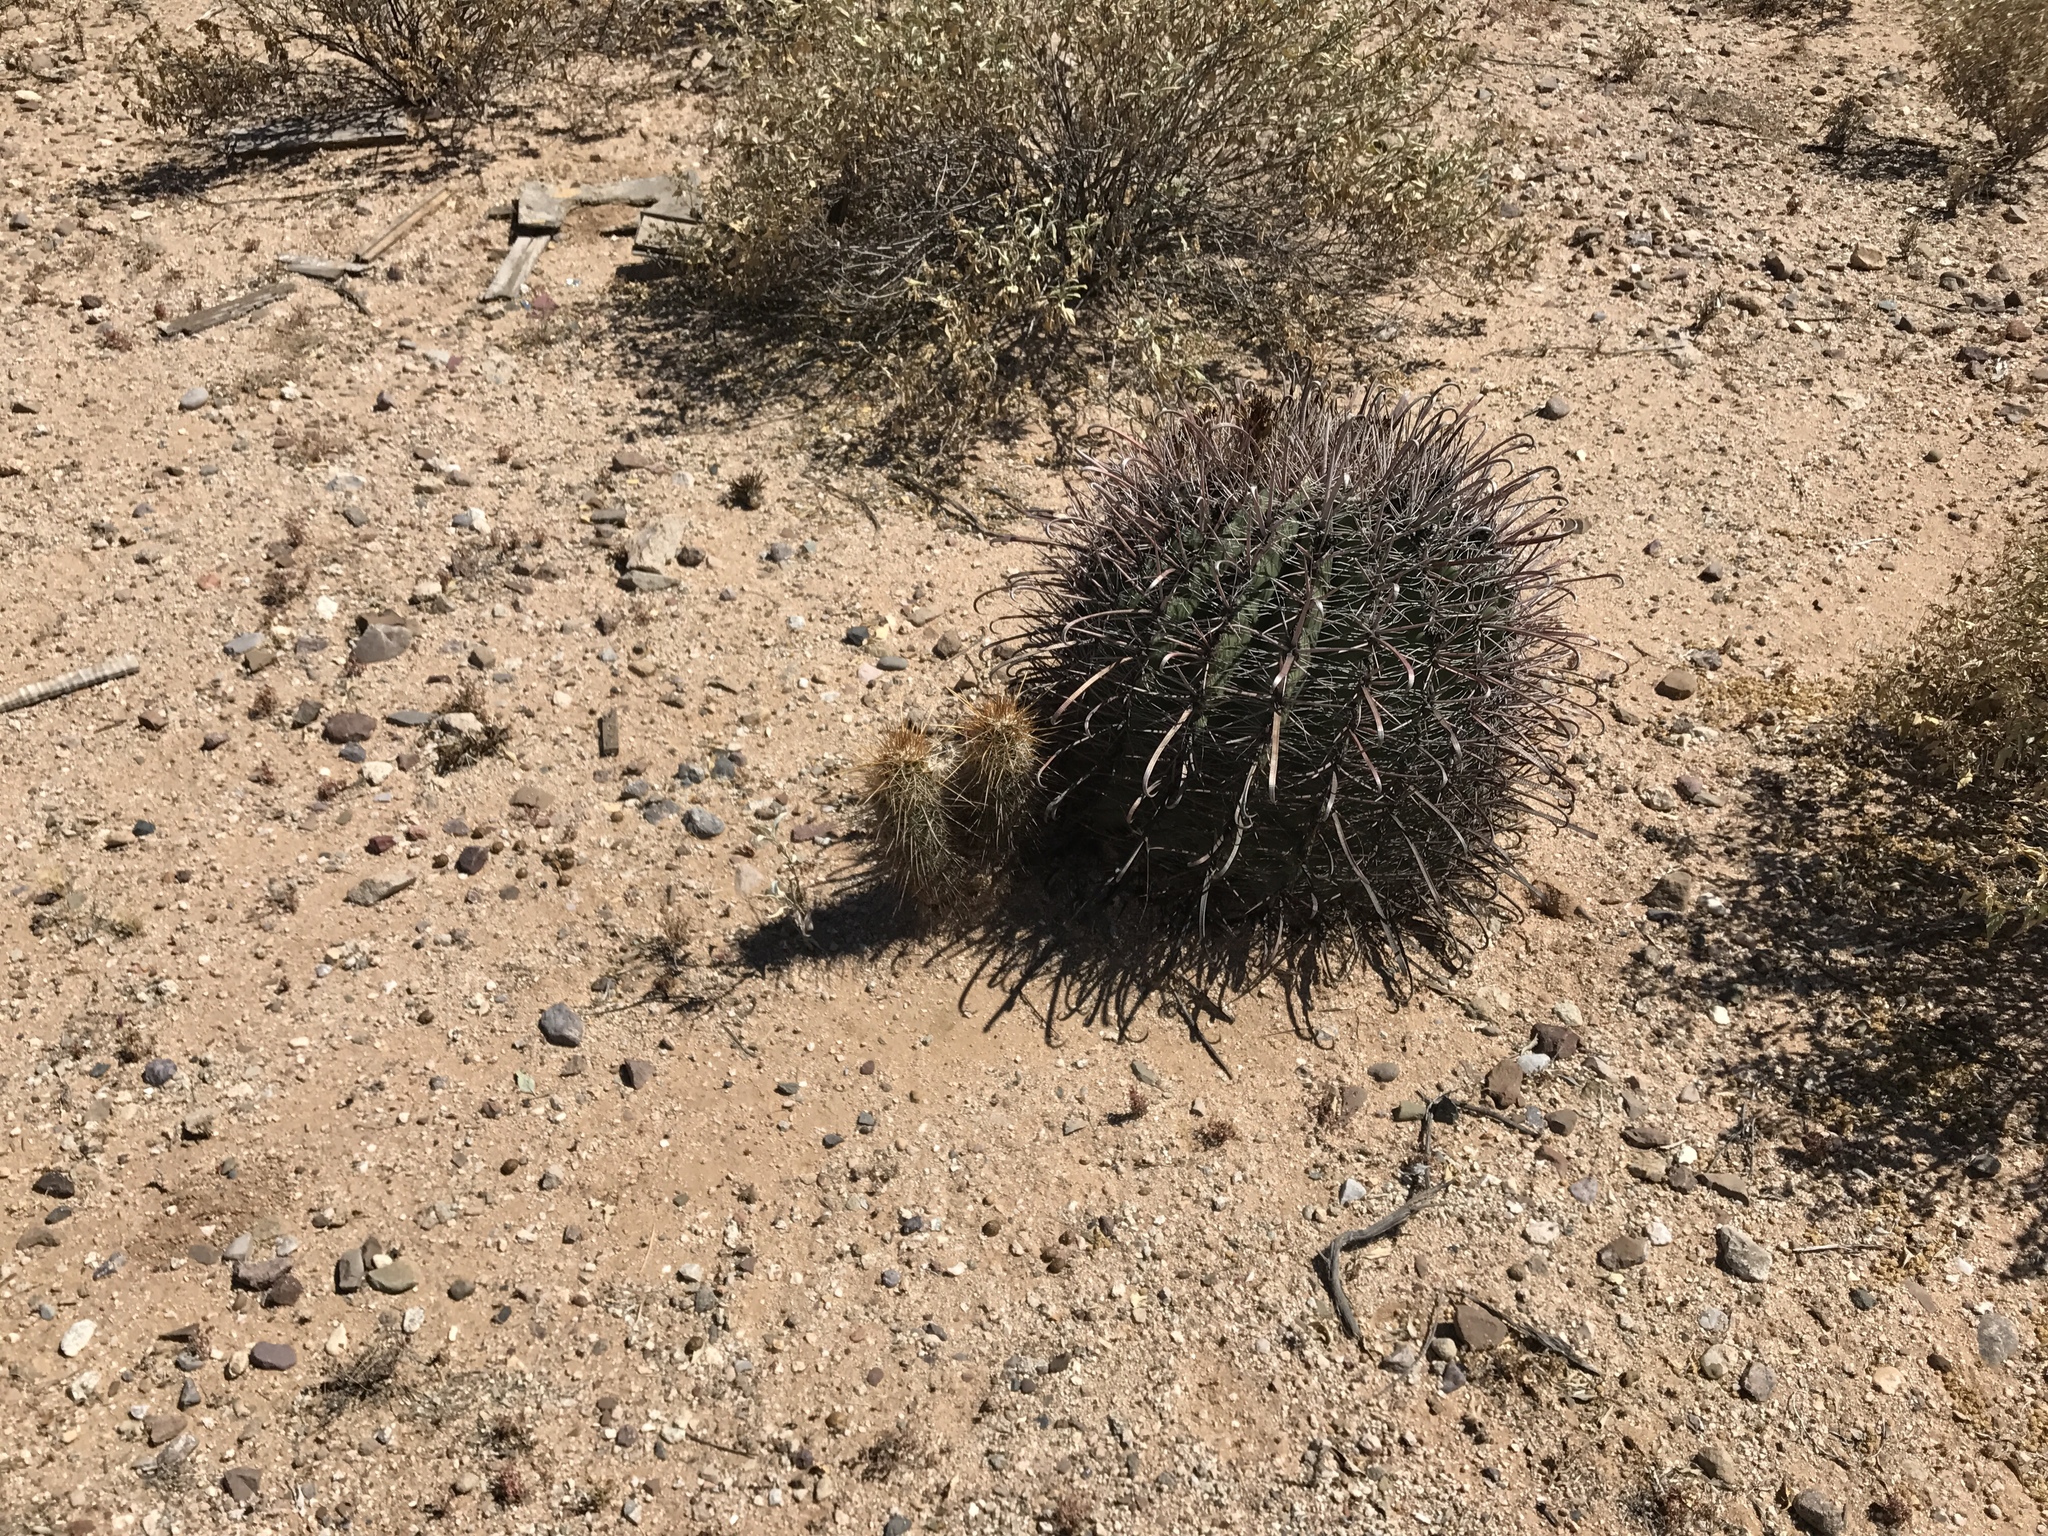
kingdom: Plantae
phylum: Tracheophyta
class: Magnoliopsida
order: Caryophyllales
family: Cactaceae
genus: Ferocactus
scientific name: Ferocactus wislizeni
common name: Candy barrel cactus
